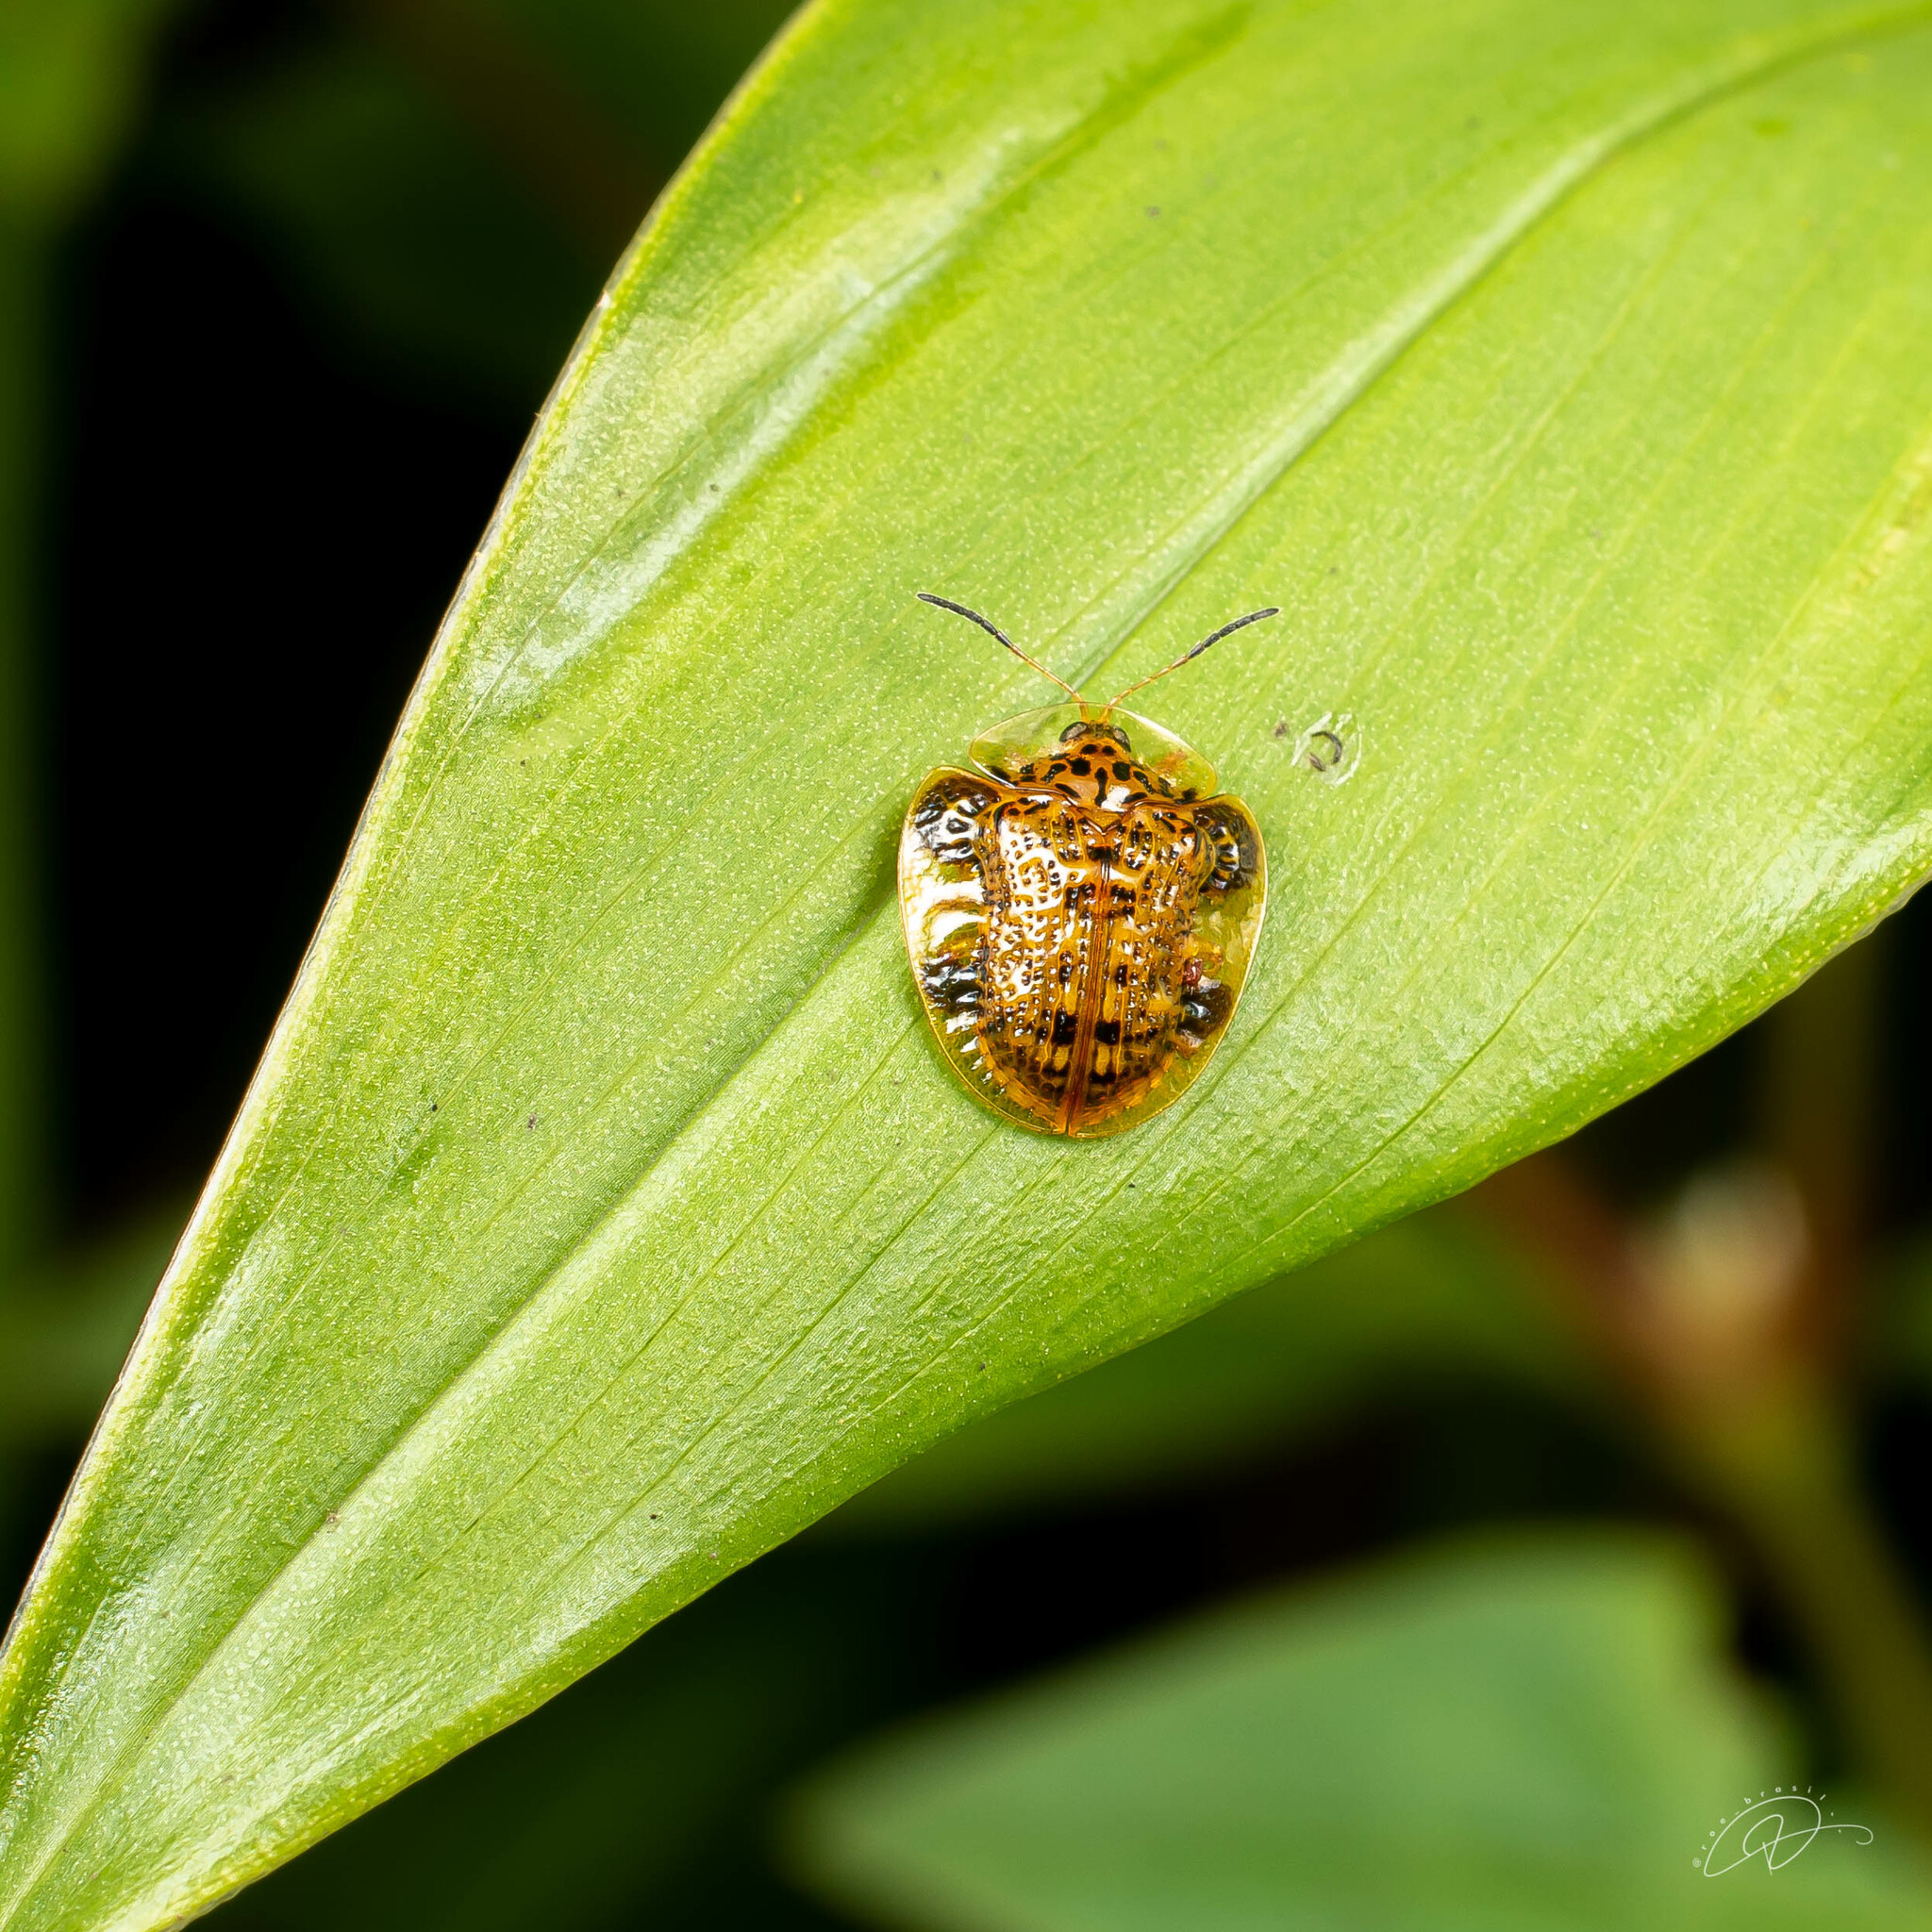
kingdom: Animalia
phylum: Arthropoda
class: Insecta
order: Coleoptera
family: Chrysomelidae
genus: Microctenochira
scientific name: Microctenochira aciculata
